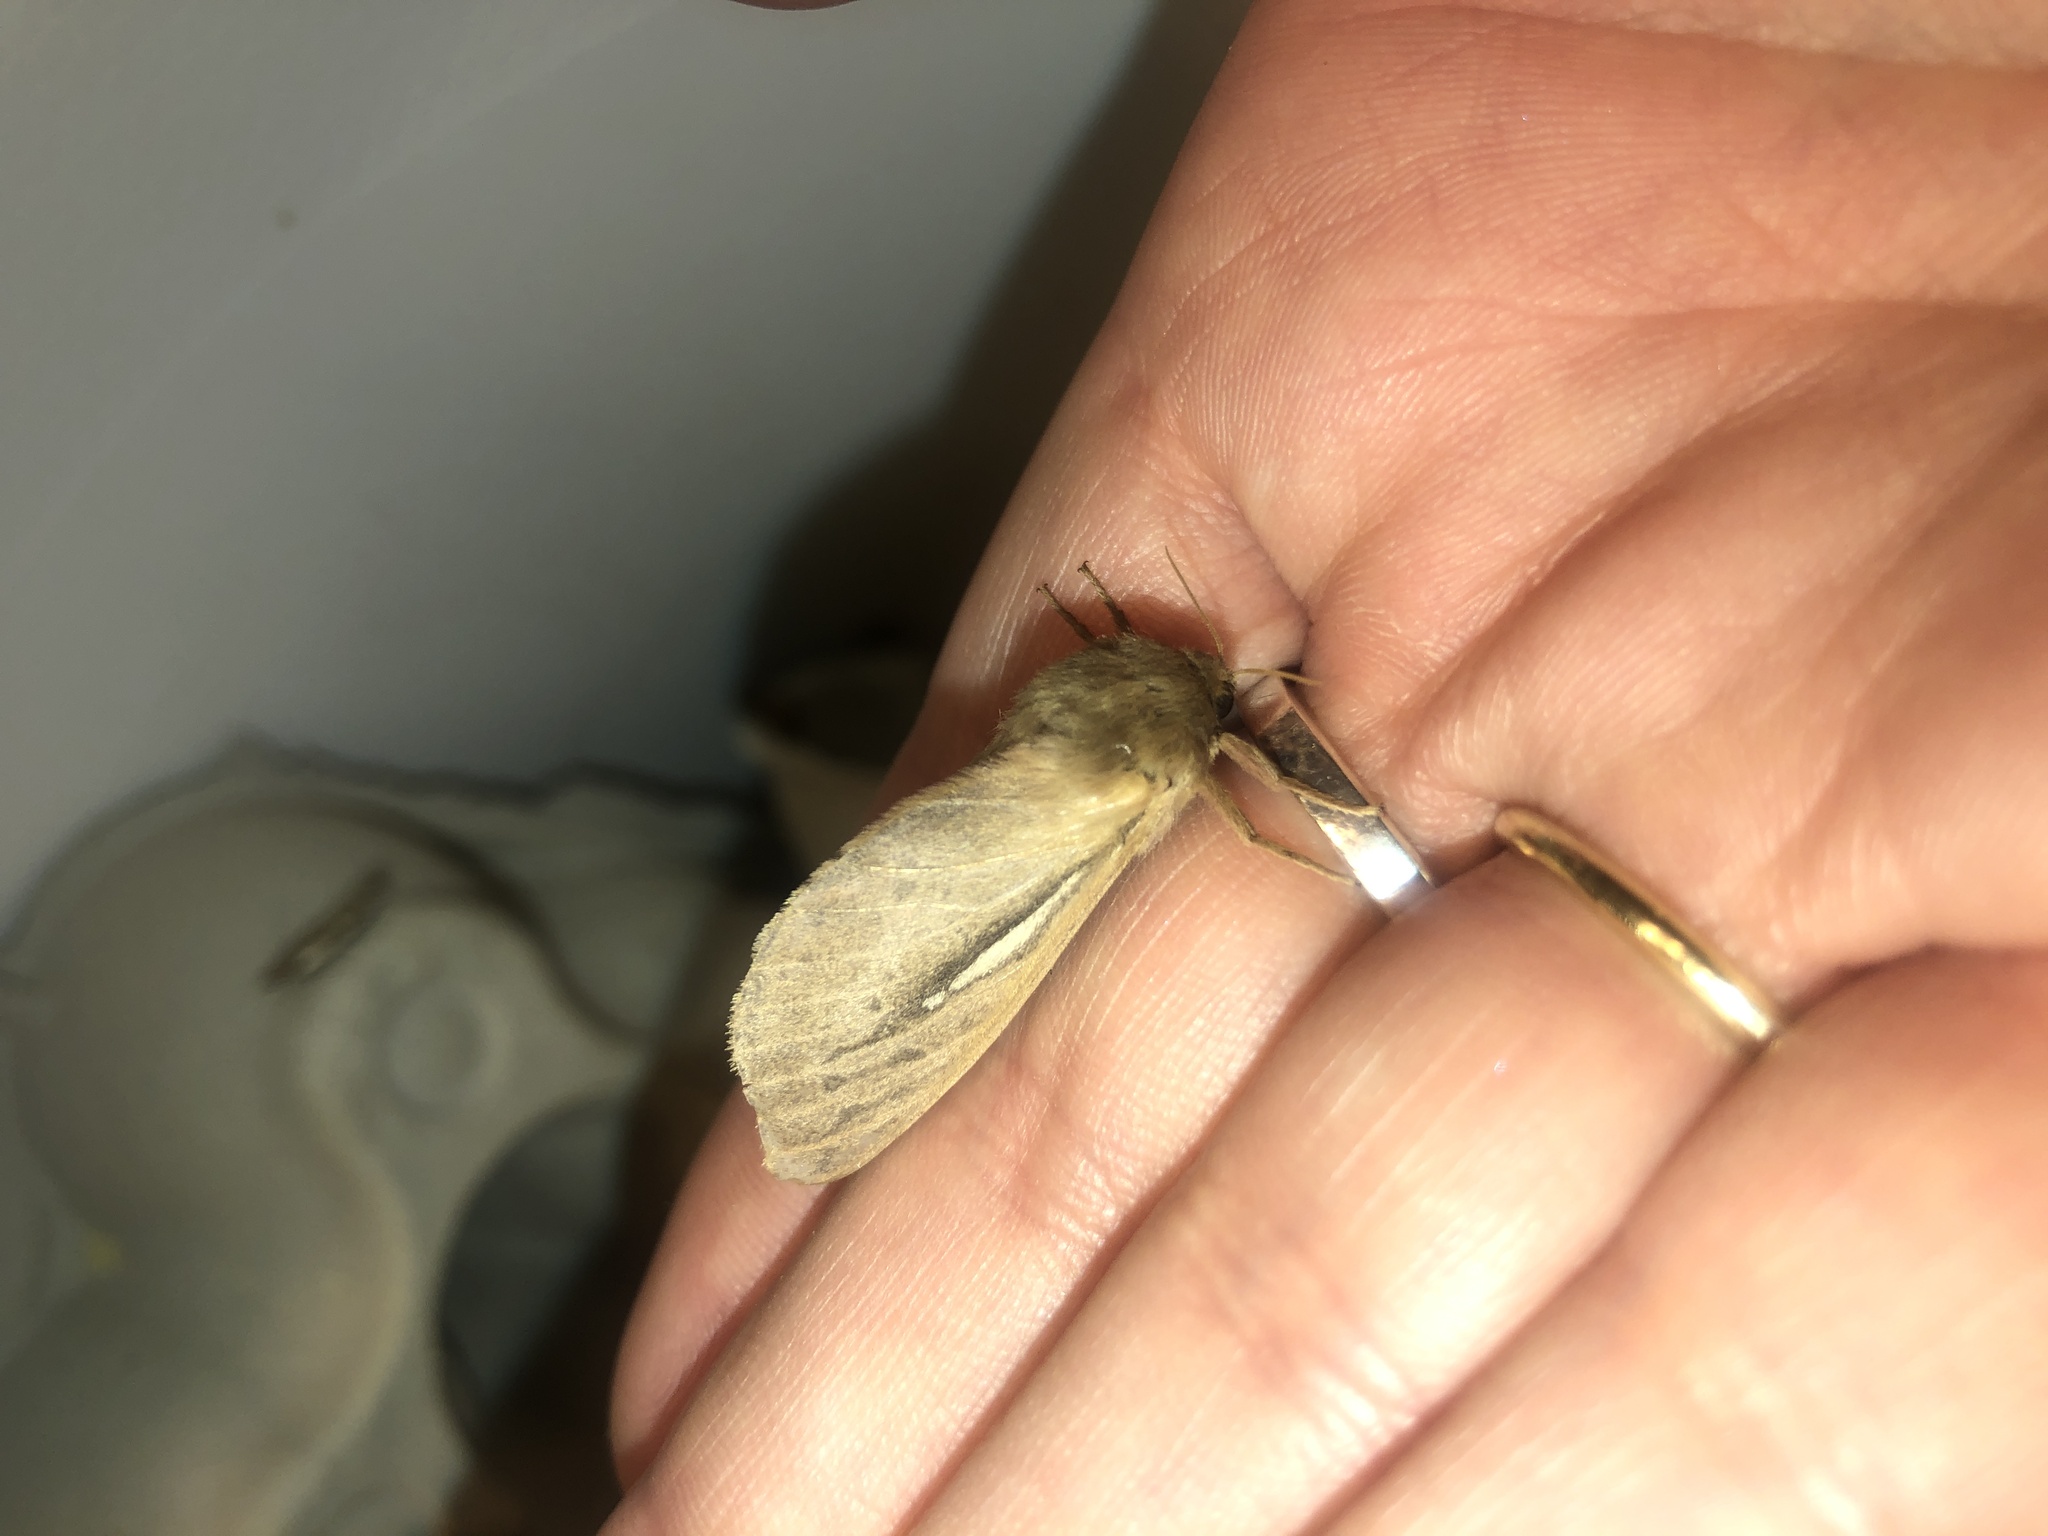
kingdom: Animalia
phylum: Arthropoda
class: Insecta
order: Lepidoptera
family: Hepialidae
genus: Wiseana
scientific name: Wiseana umbraculatus
